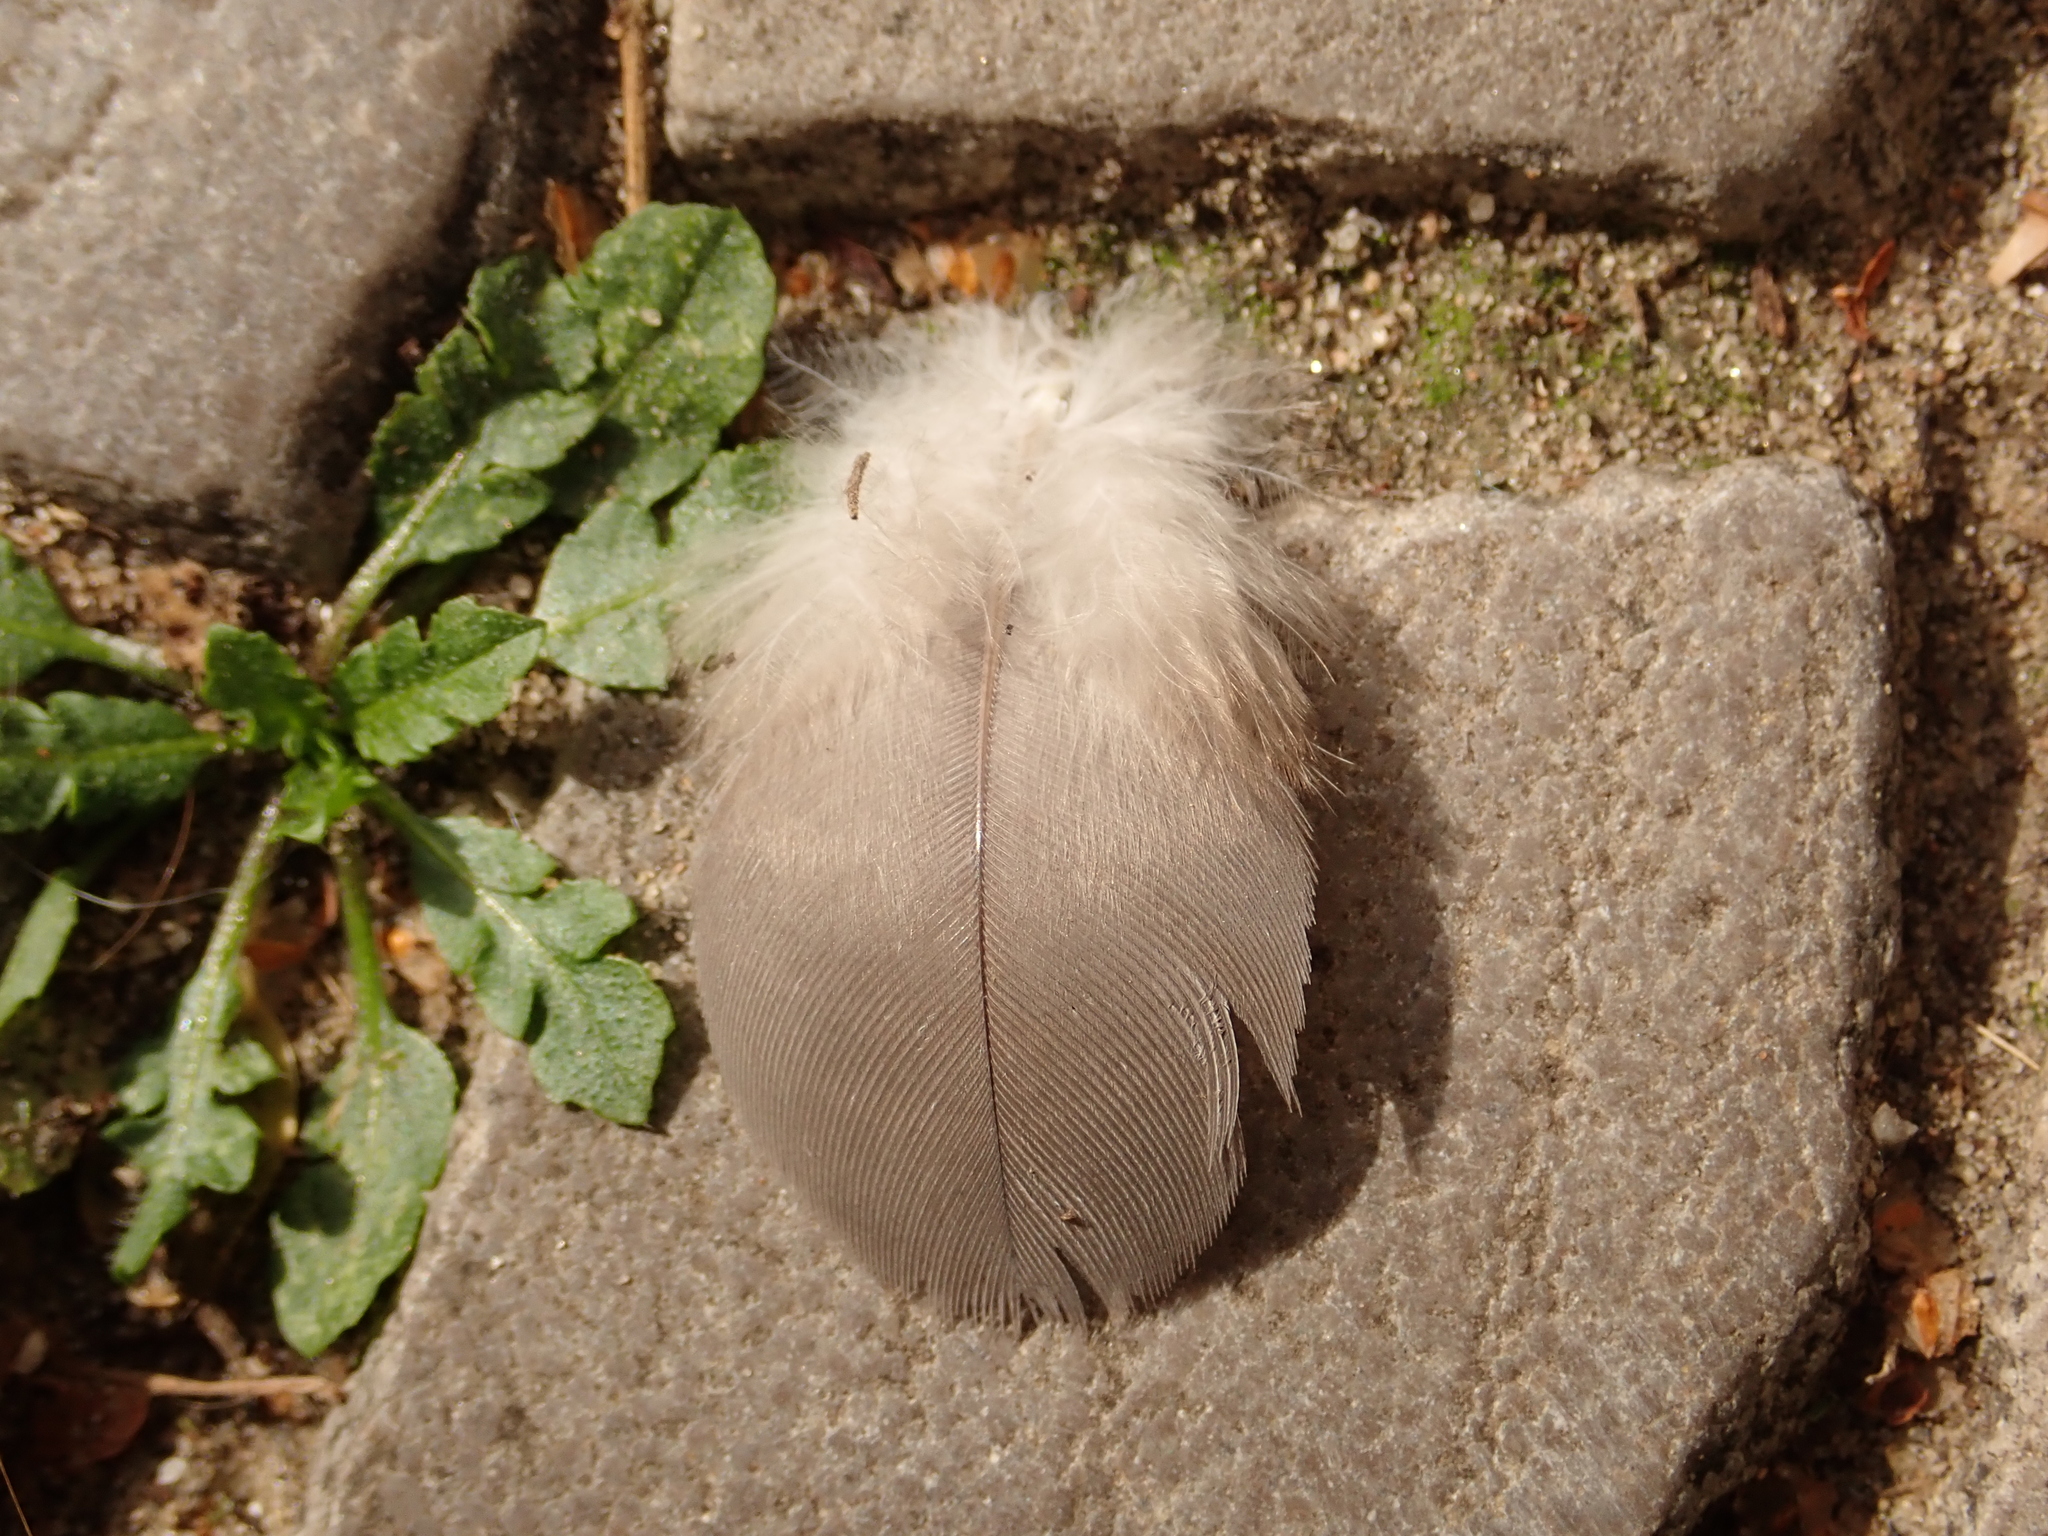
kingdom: Animalia
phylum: Chordata
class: Aves
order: Columbiformes
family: Columbidae
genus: Columba
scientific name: Columba palumbus
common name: Common wood pigeon
